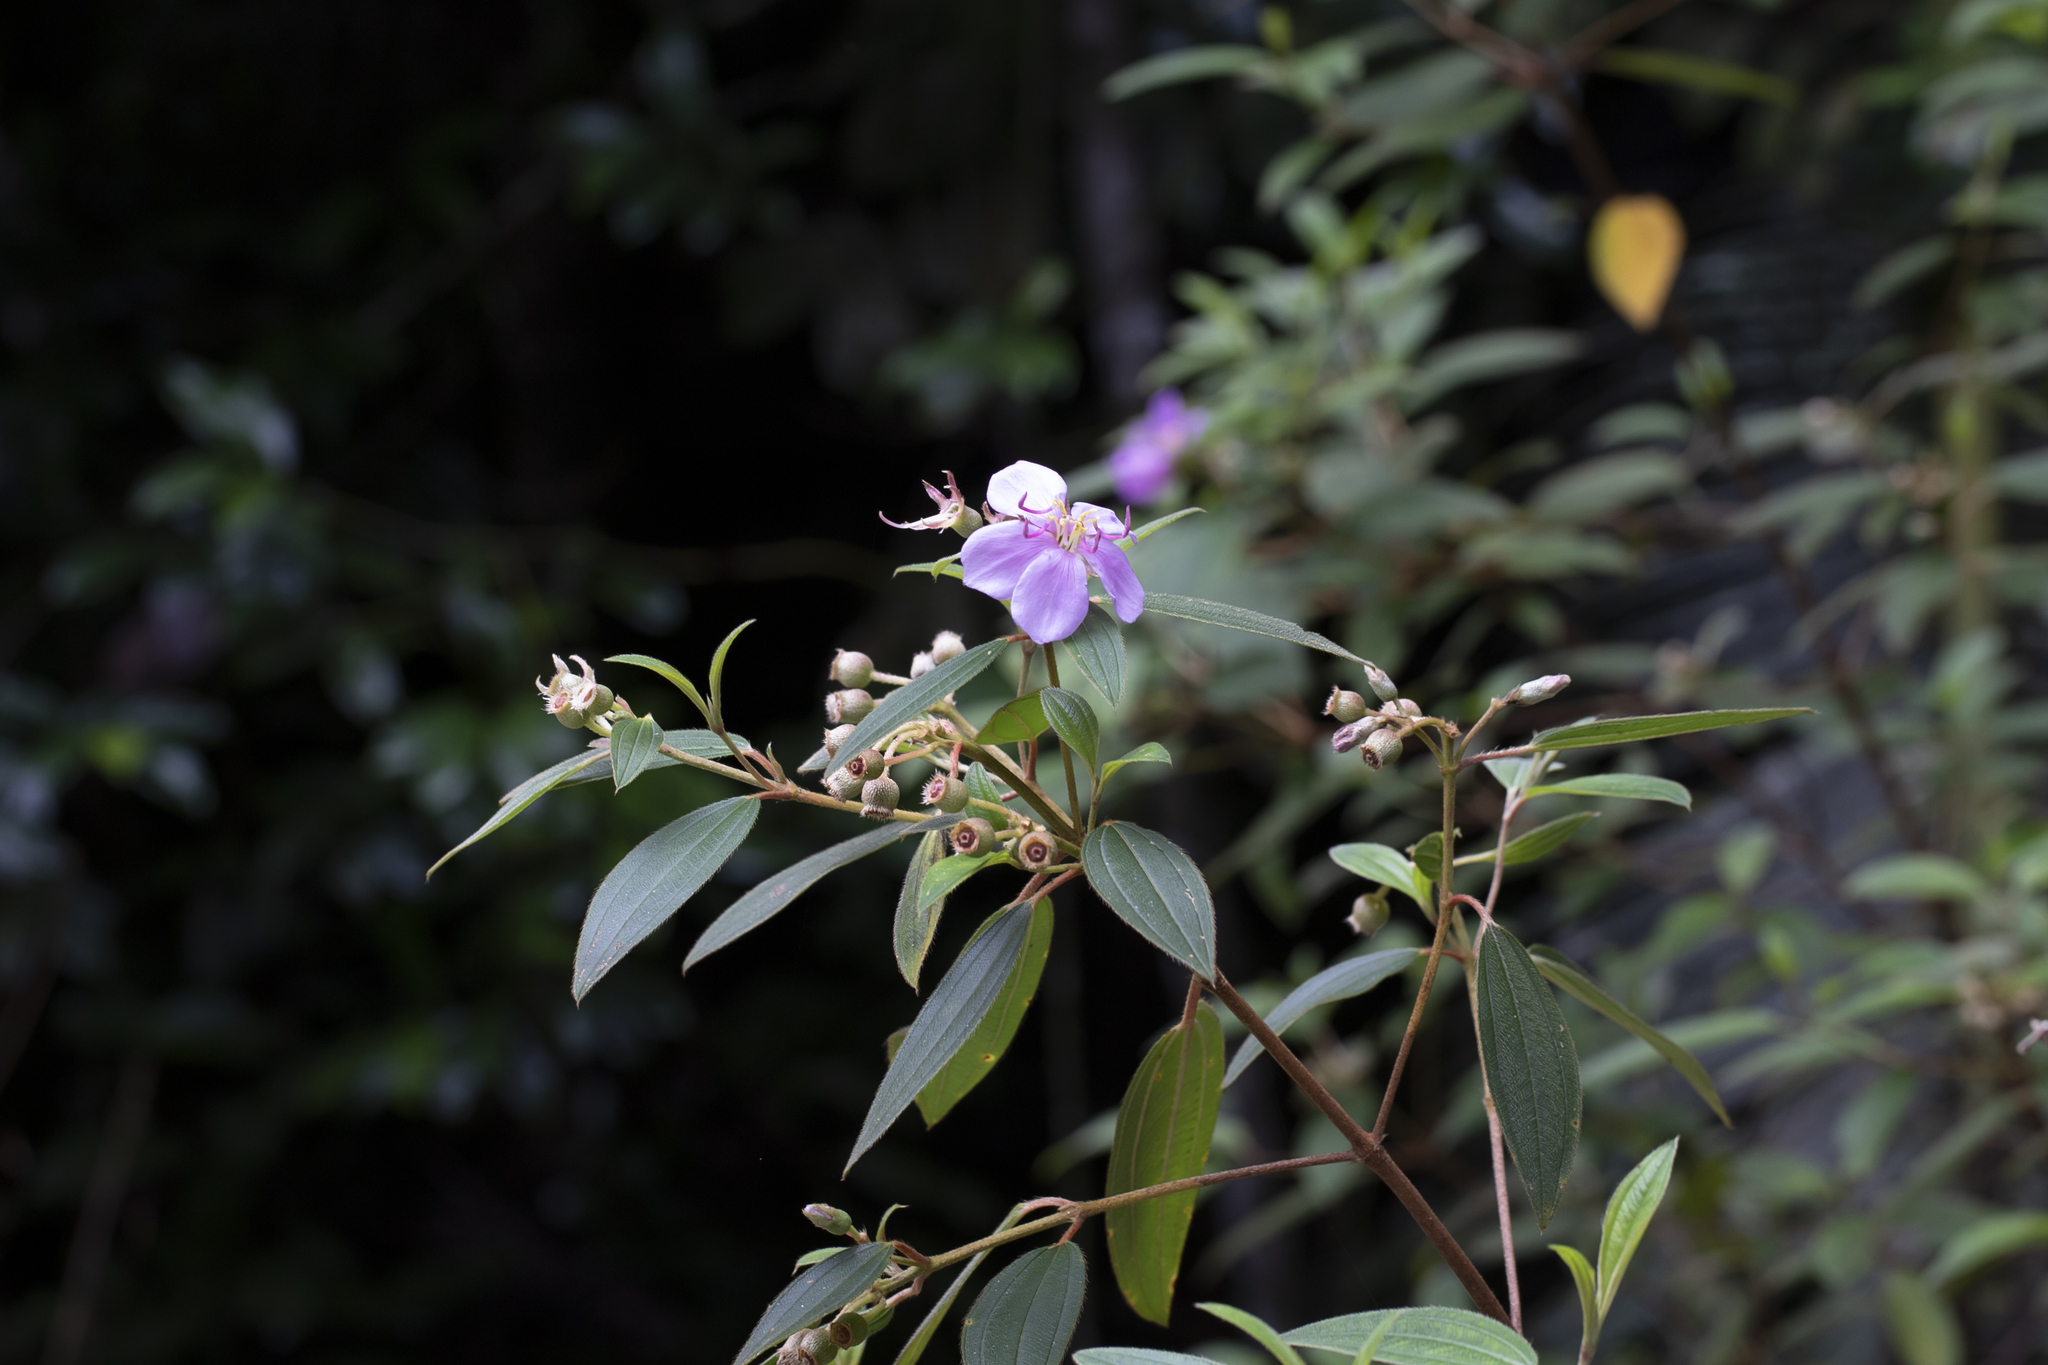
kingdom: Plantae
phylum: Tracheophyta
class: Magnoliopsida
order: Myrtales
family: Melastomataceae
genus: Melastoma
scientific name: Melastoma malabathricum
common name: Indian-rhododendron
